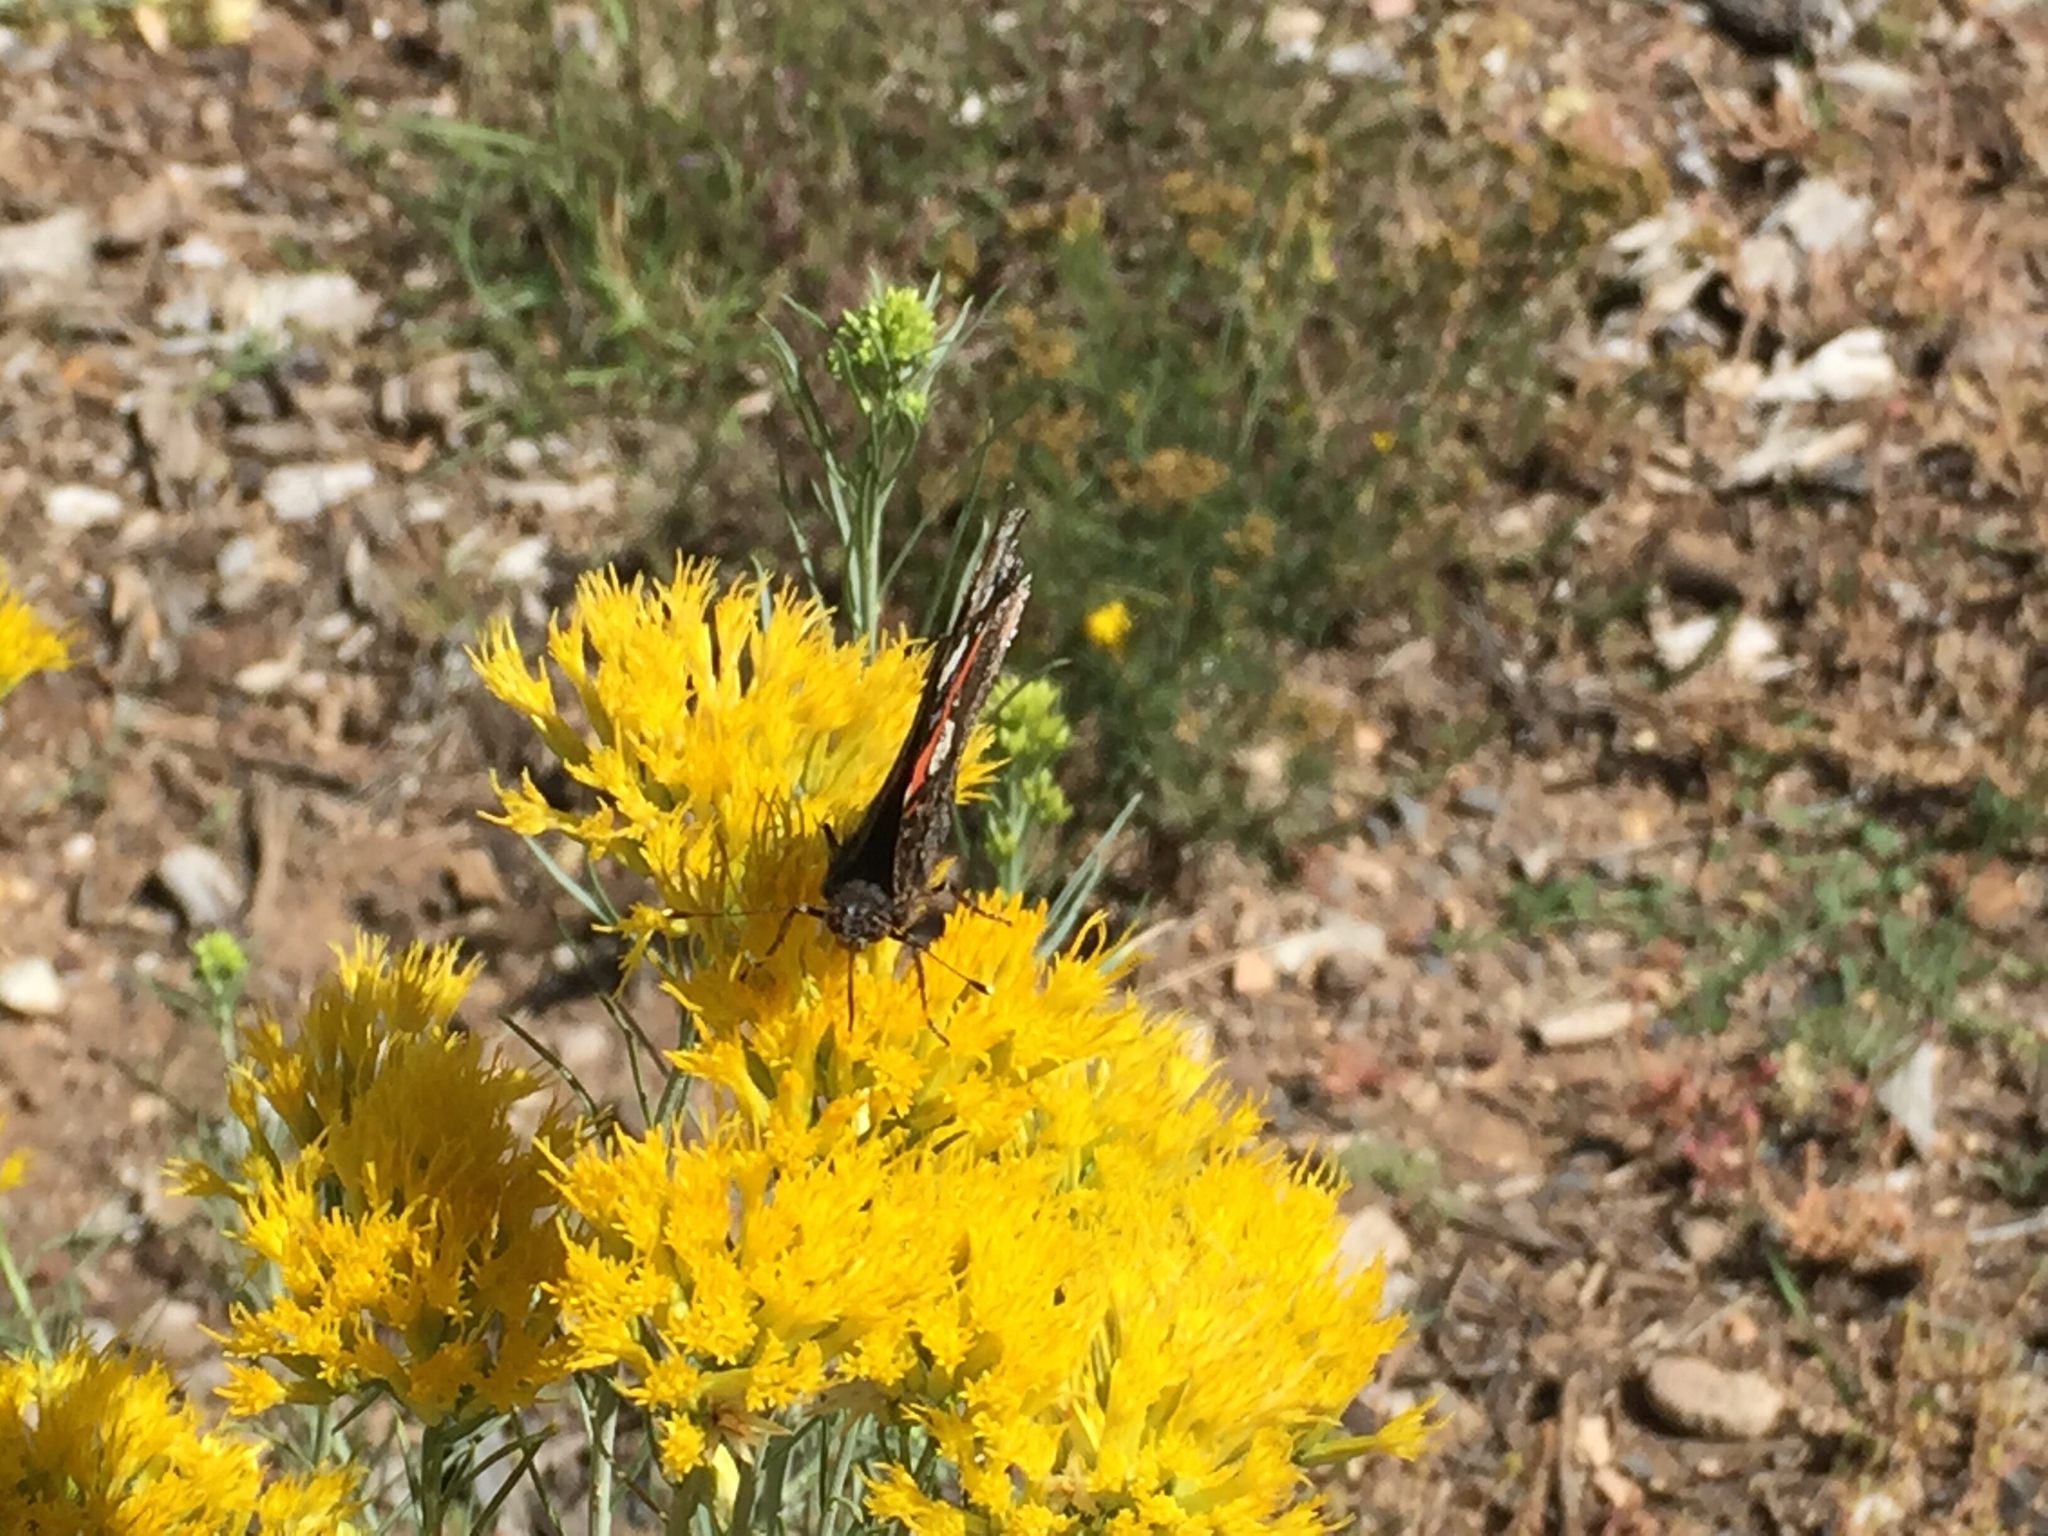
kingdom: Animalia
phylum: Arthropoda
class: Insecta
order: Lepidoptera
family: Nymphalidae
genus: Vanessa
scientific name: Vanessa atalanta
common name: Red admiral
